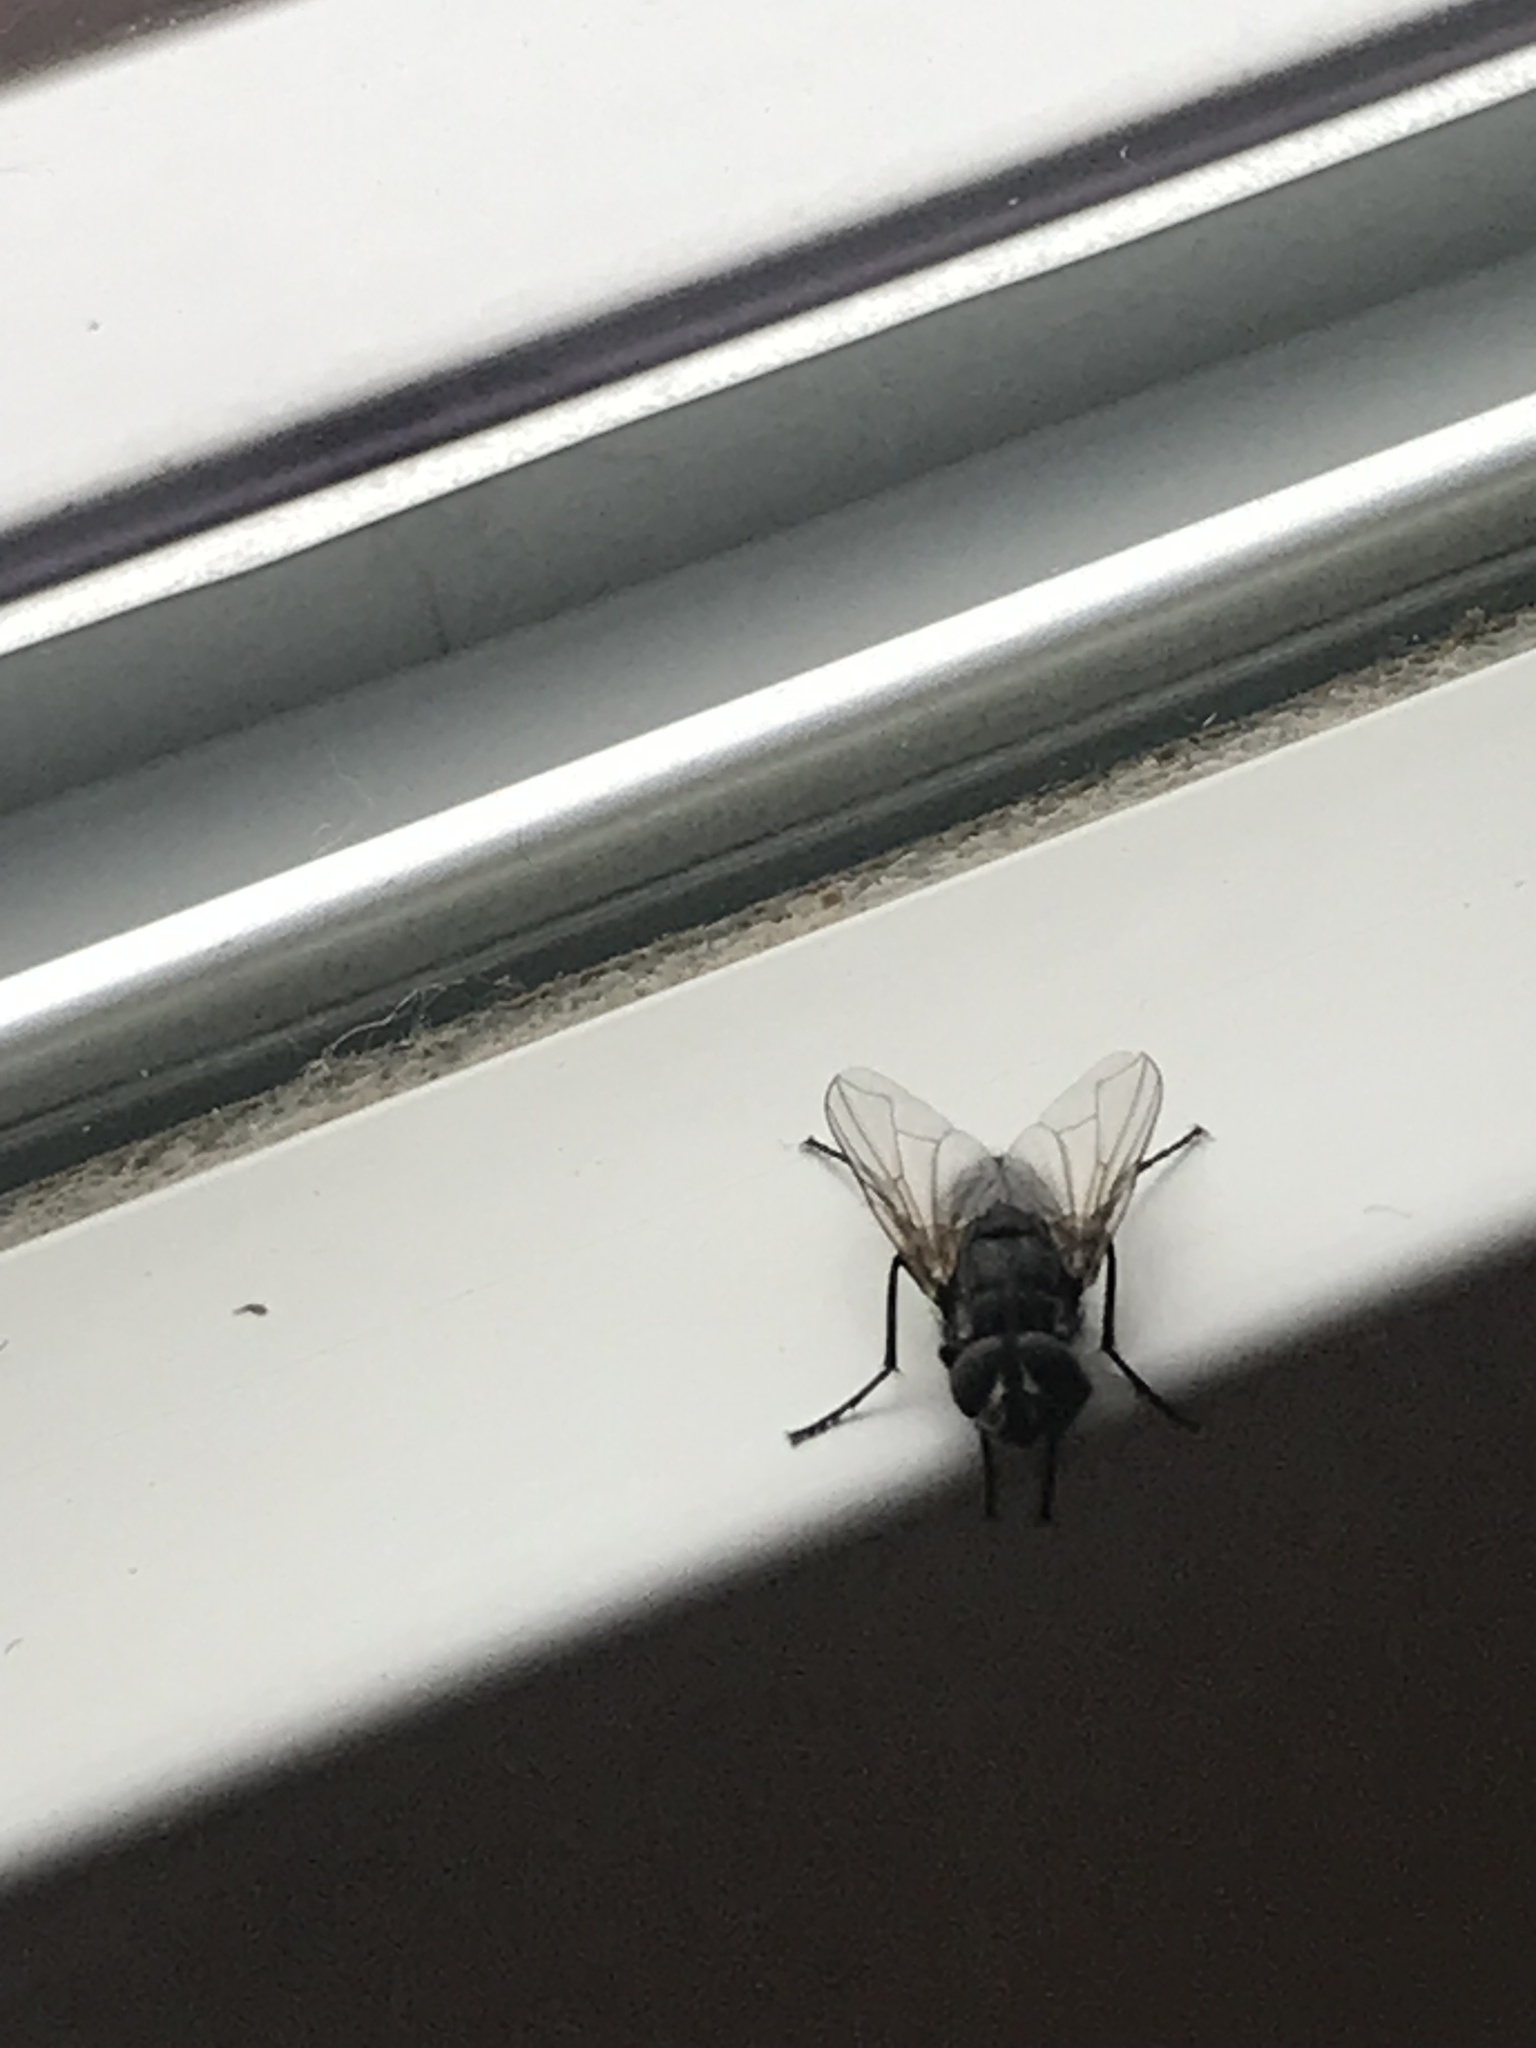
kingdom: Animalia
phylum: Arthropoda
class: Insecta
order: Diptera
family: Muscidae
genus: Musca
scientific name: Musca domestica
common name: House fly
